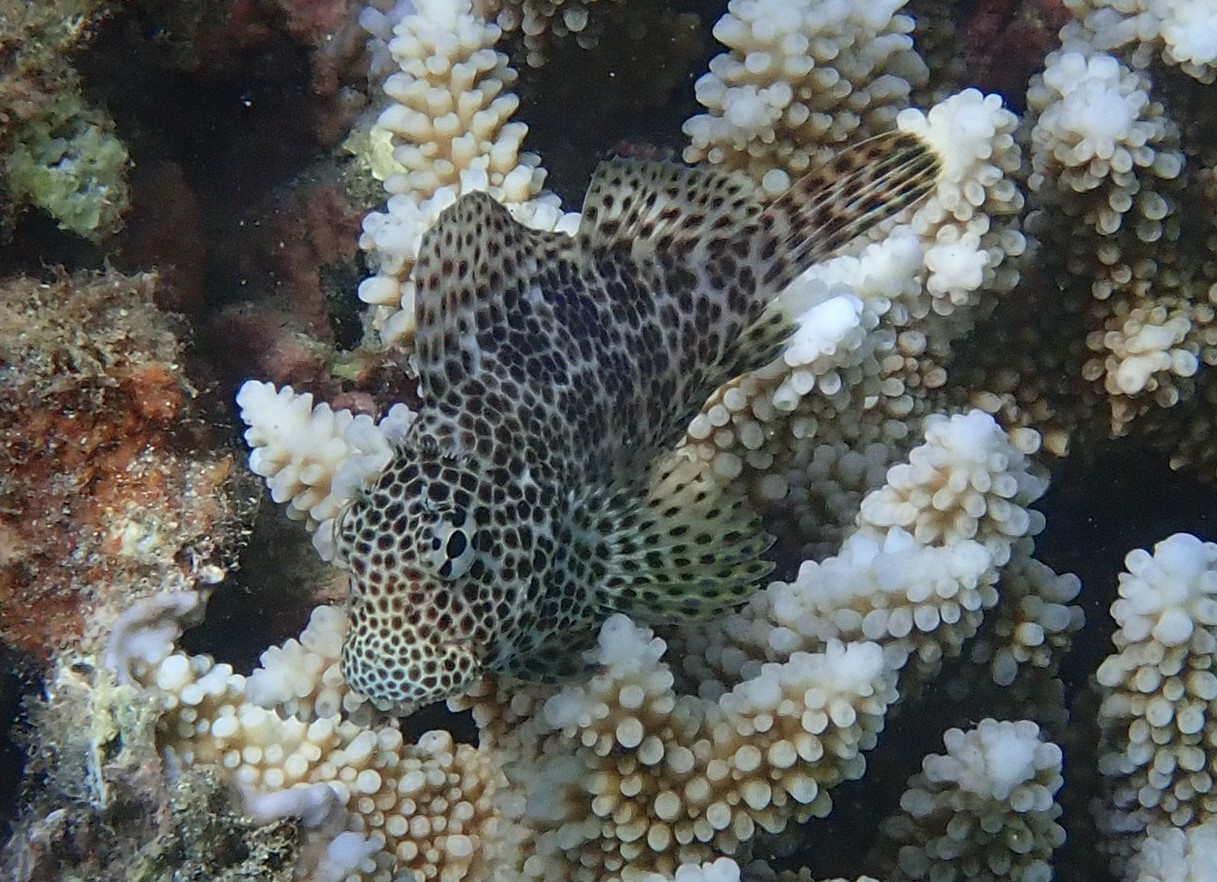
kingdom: Animalia
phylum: Chordata
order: Perciformes
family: Blenniidae
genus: Exallias
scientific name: Exallias brevis
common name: Leopard blenny
